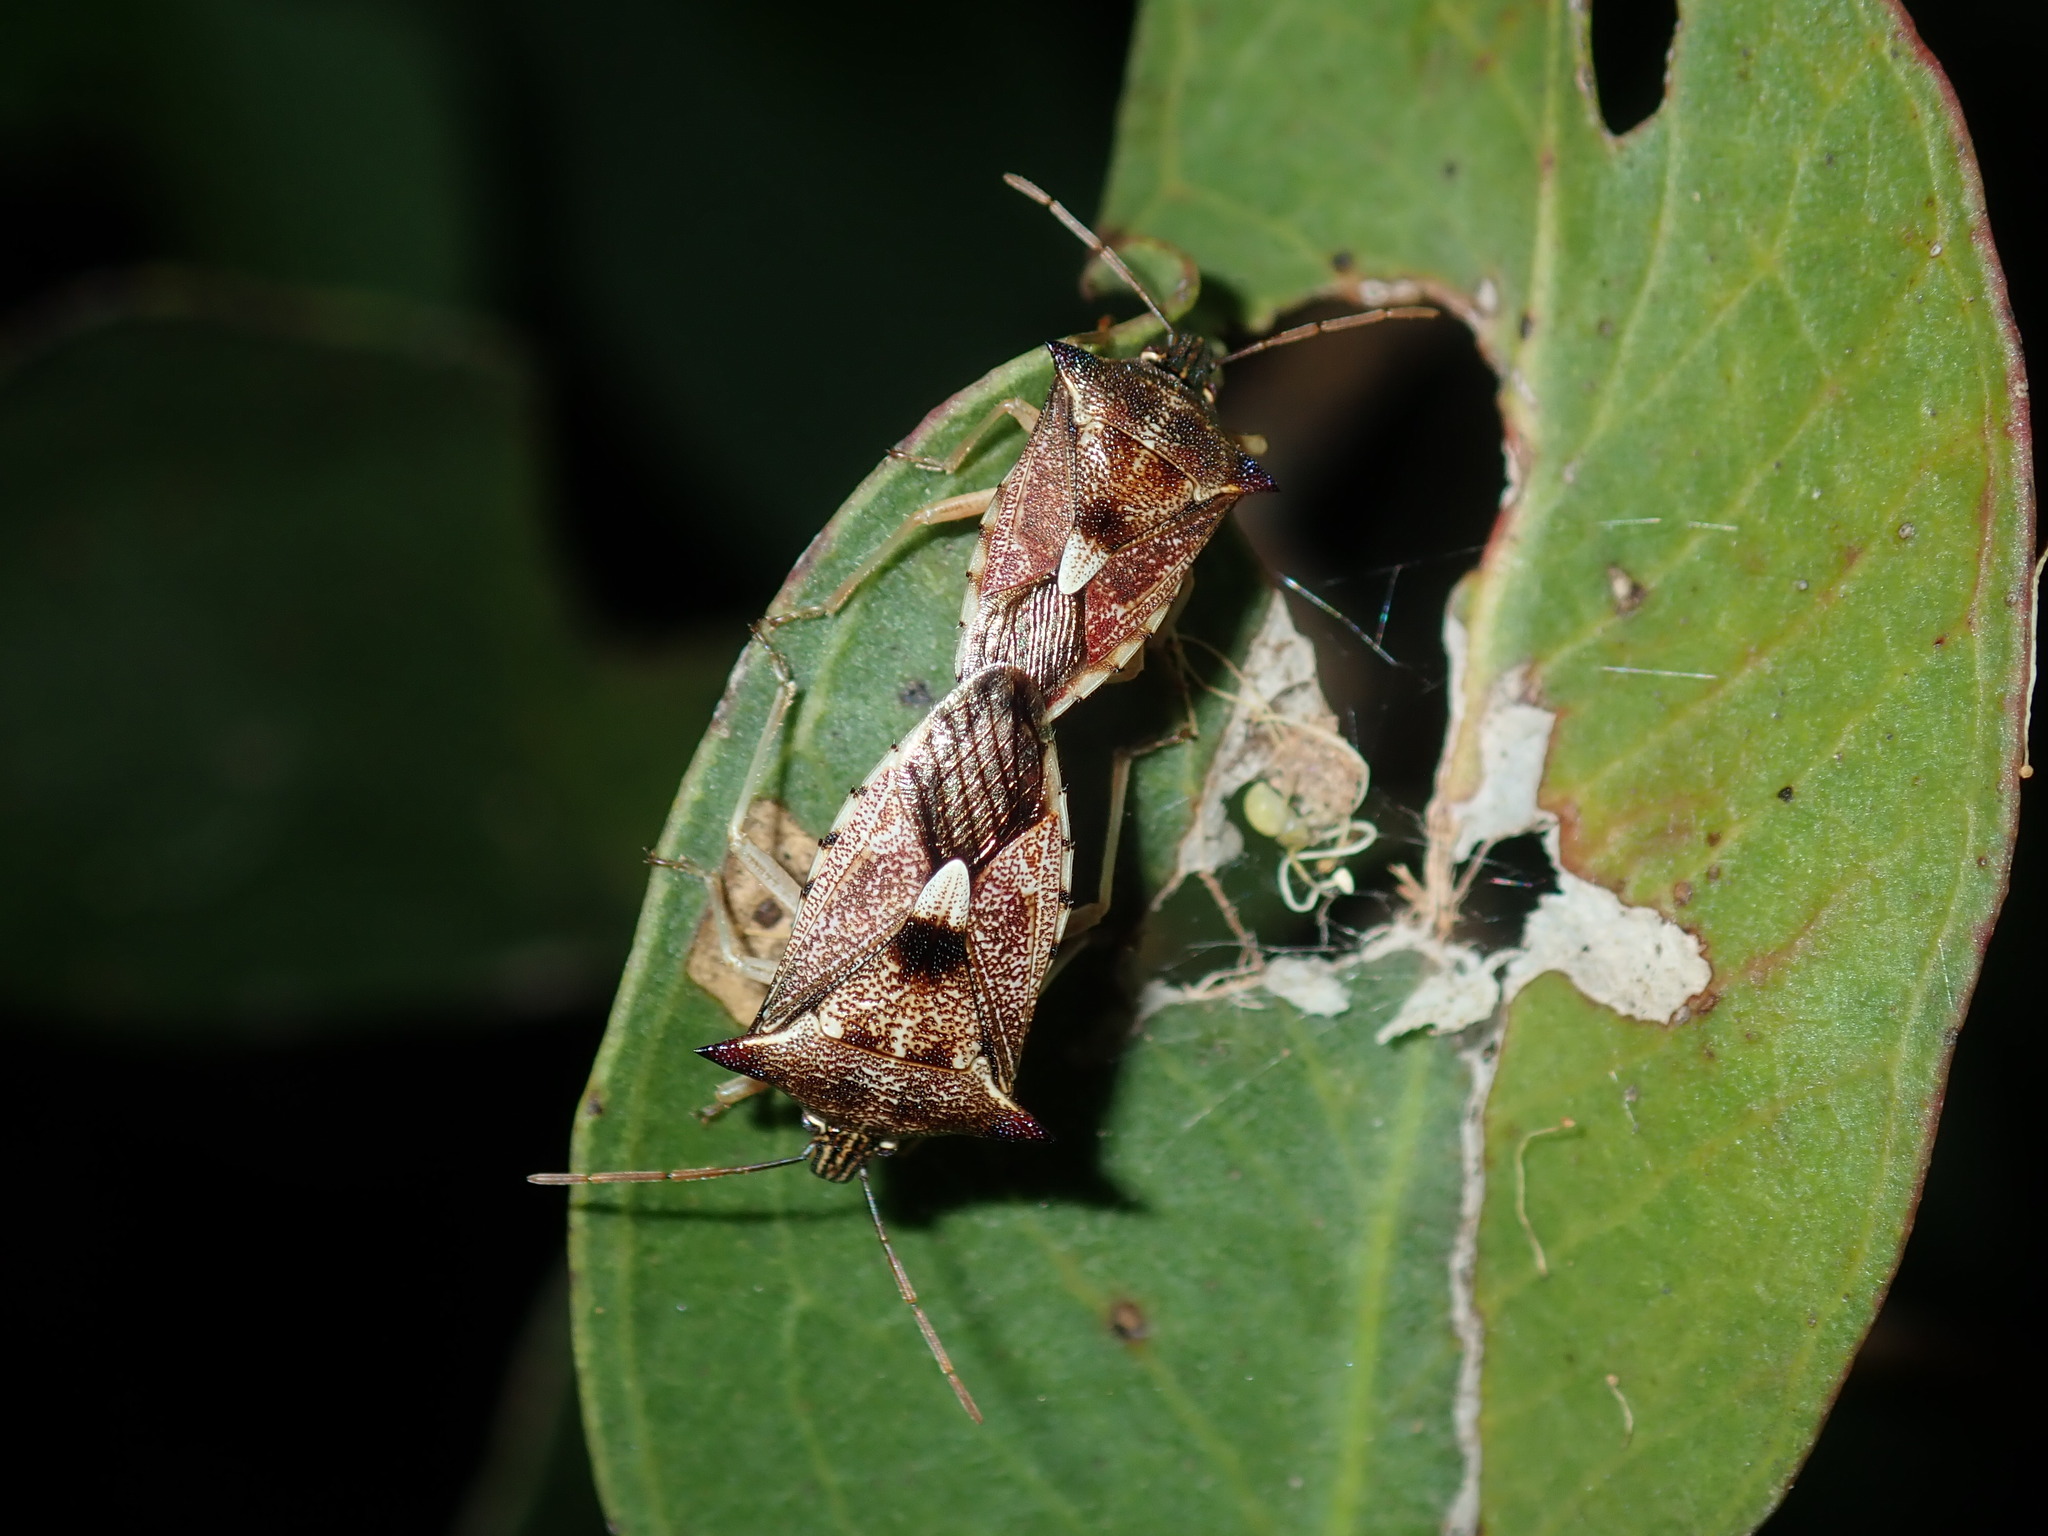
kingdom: Animalia
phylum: Arthropoda
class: Insecta
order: Hemiptera
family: Pentatomidae
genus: Oechalia
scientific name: Oechalia schellenbergii
